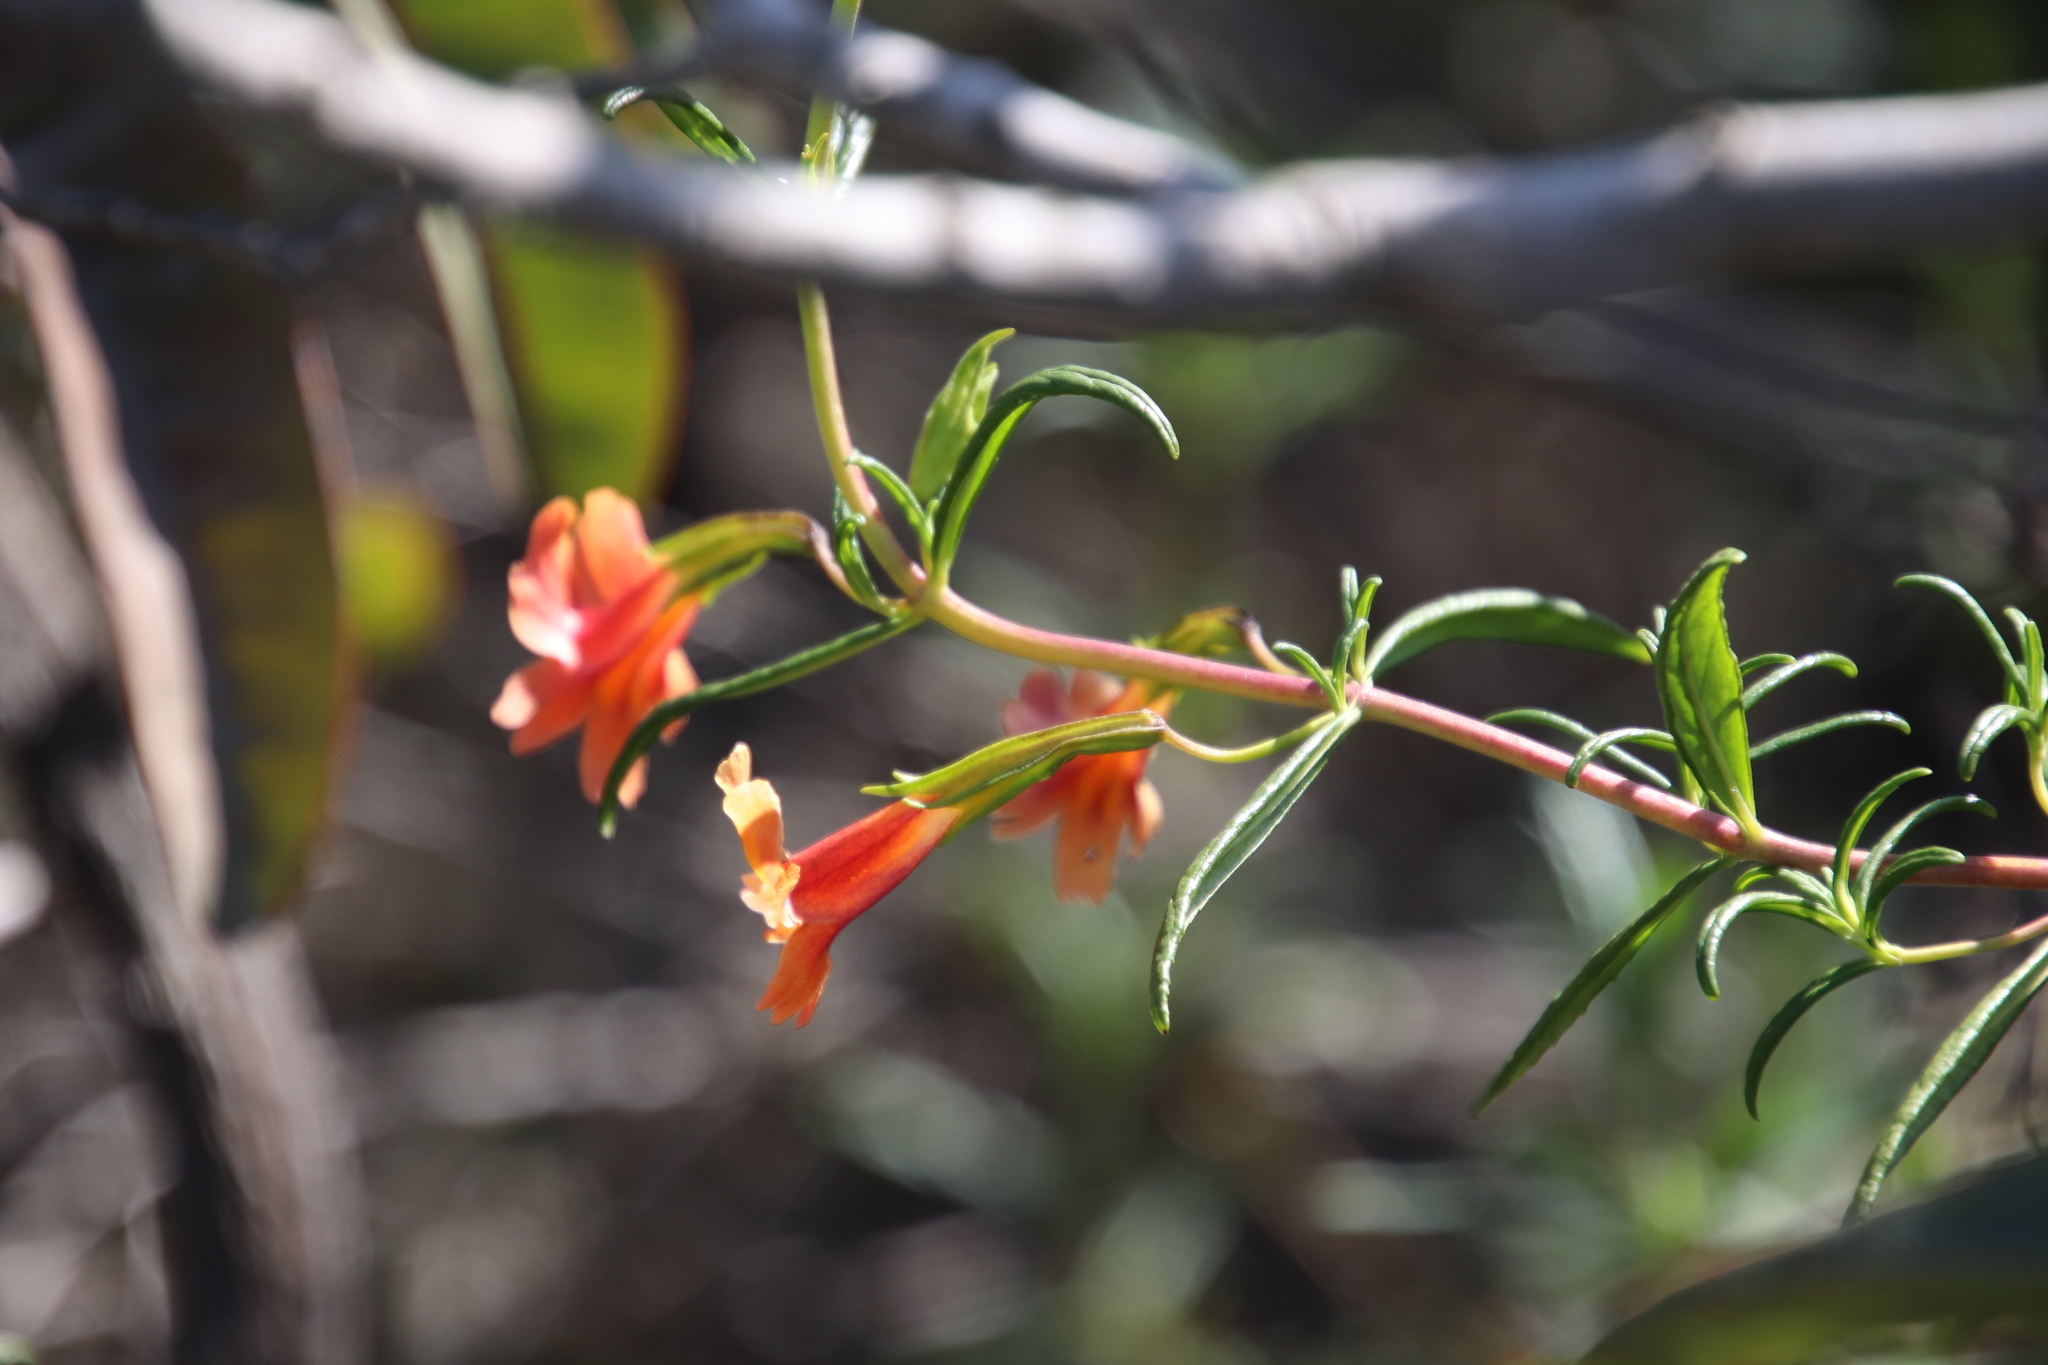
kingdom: Plantae
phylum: Tracheophyta
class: Magnoliopsida
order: Lamiales
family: Phrymaceae
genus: Diplacus
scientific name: Diplacus australis
